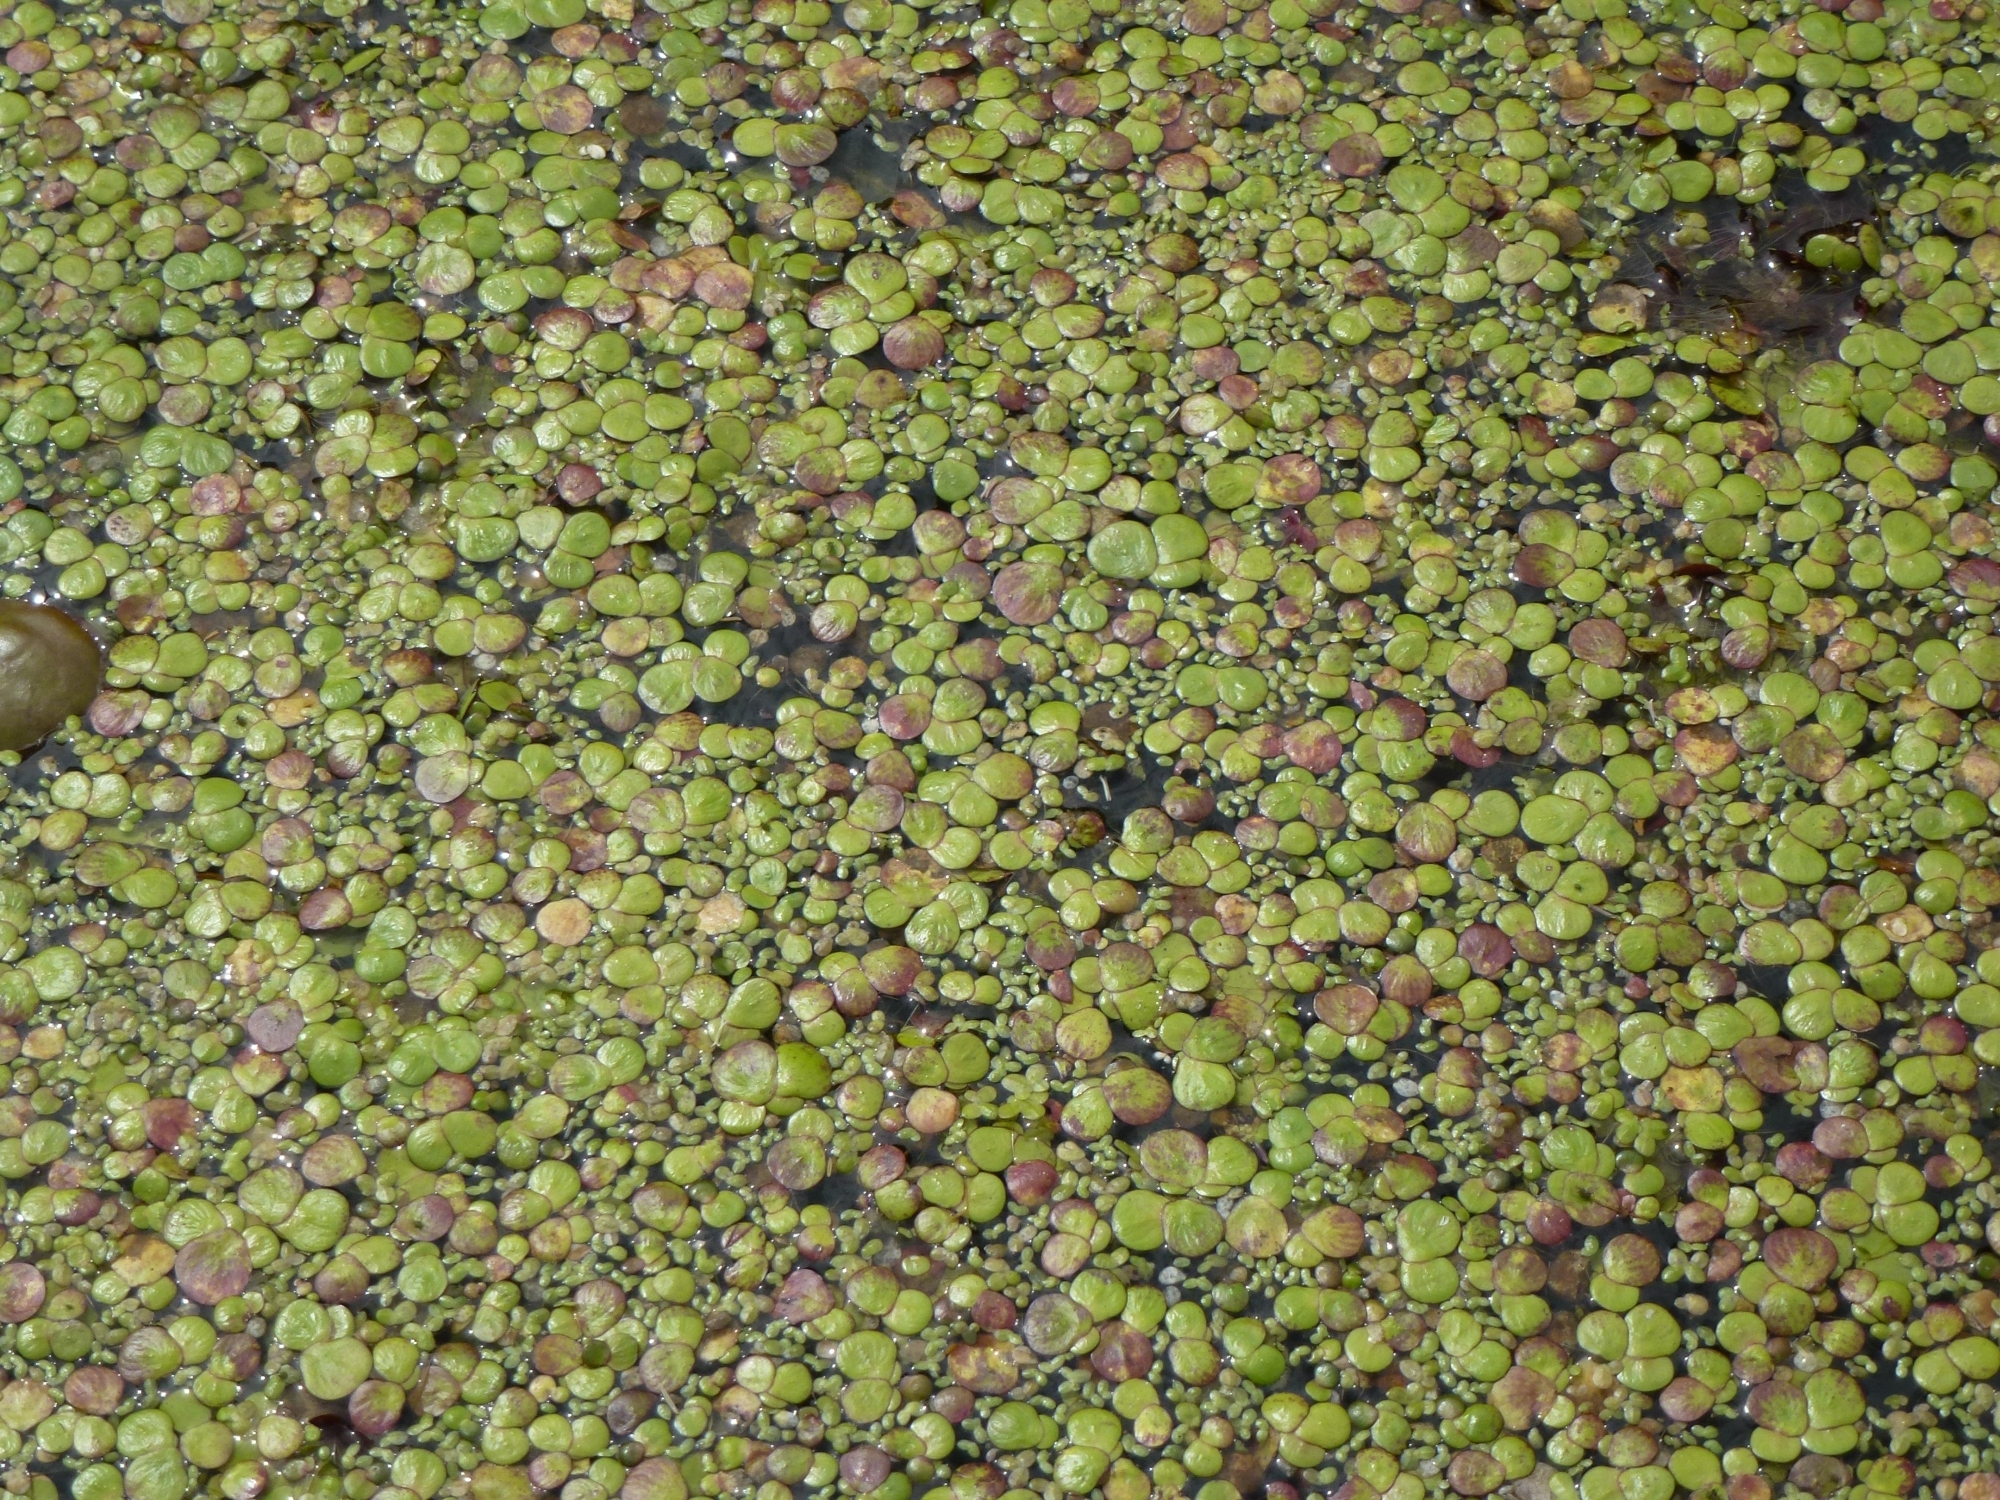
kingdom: Plantae
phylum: Tracheophyta
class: Liliopsida
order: Alismatales
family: Araceae
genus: Spirodela
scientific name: Spirodela polyrhiza
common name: Great duckweed
